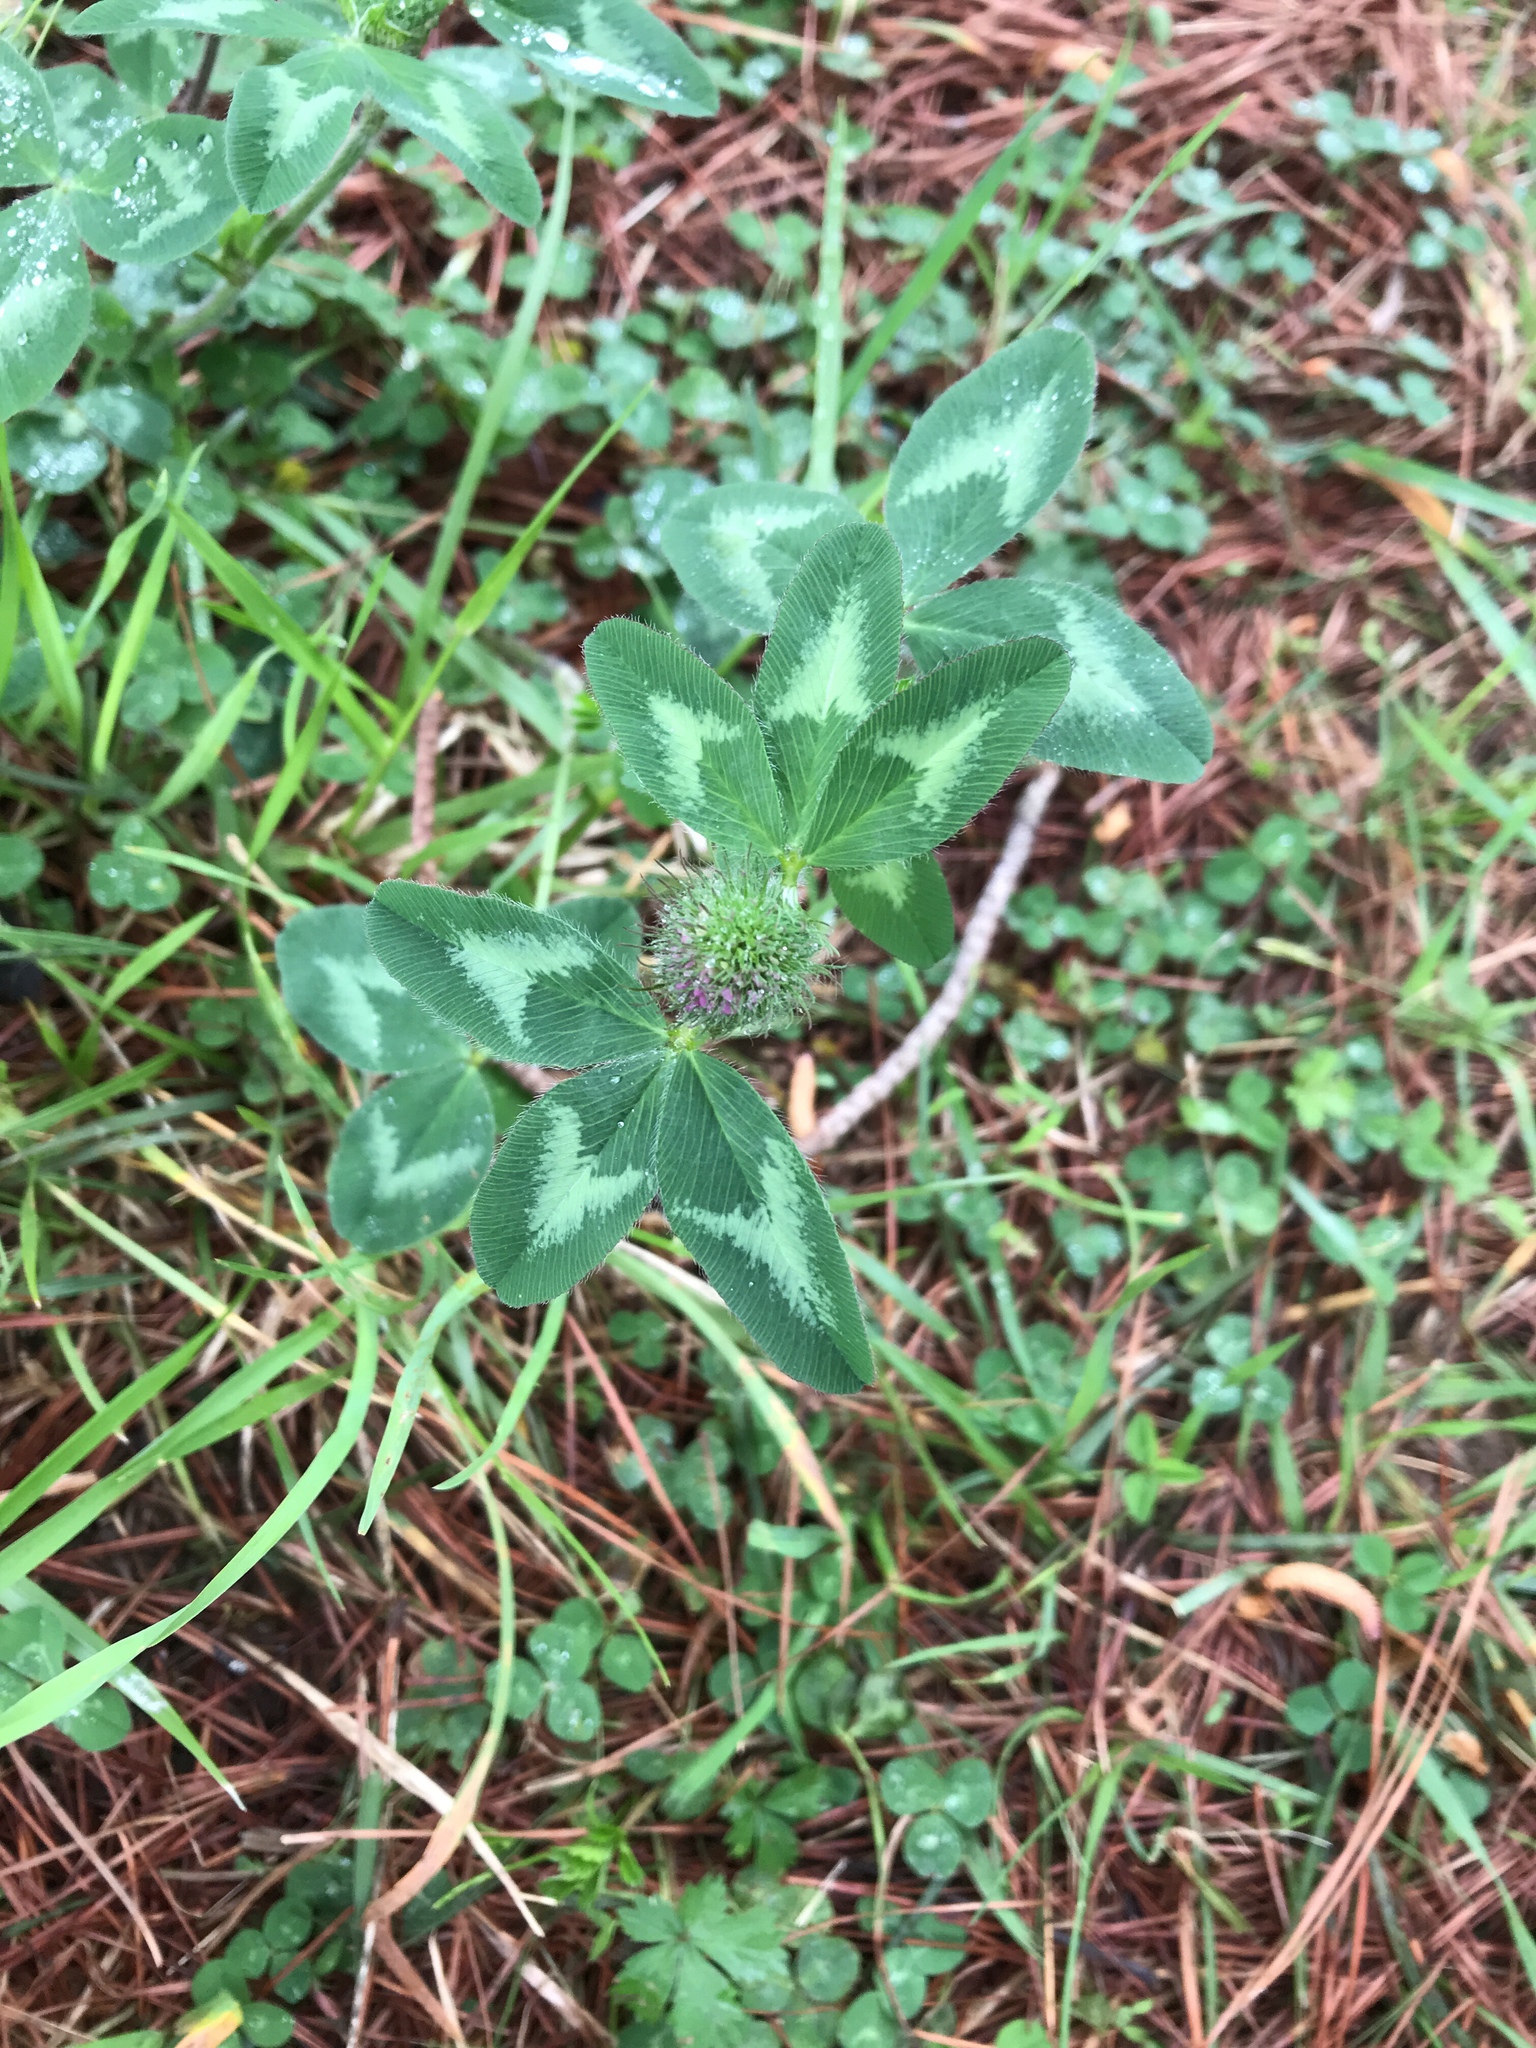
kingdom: Plantae
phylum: Tracheophyta
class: Magnoliopsida
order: Fabales
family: Fabaceae
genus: Trifolium
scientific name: Trifolium pratense
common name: Red clover
